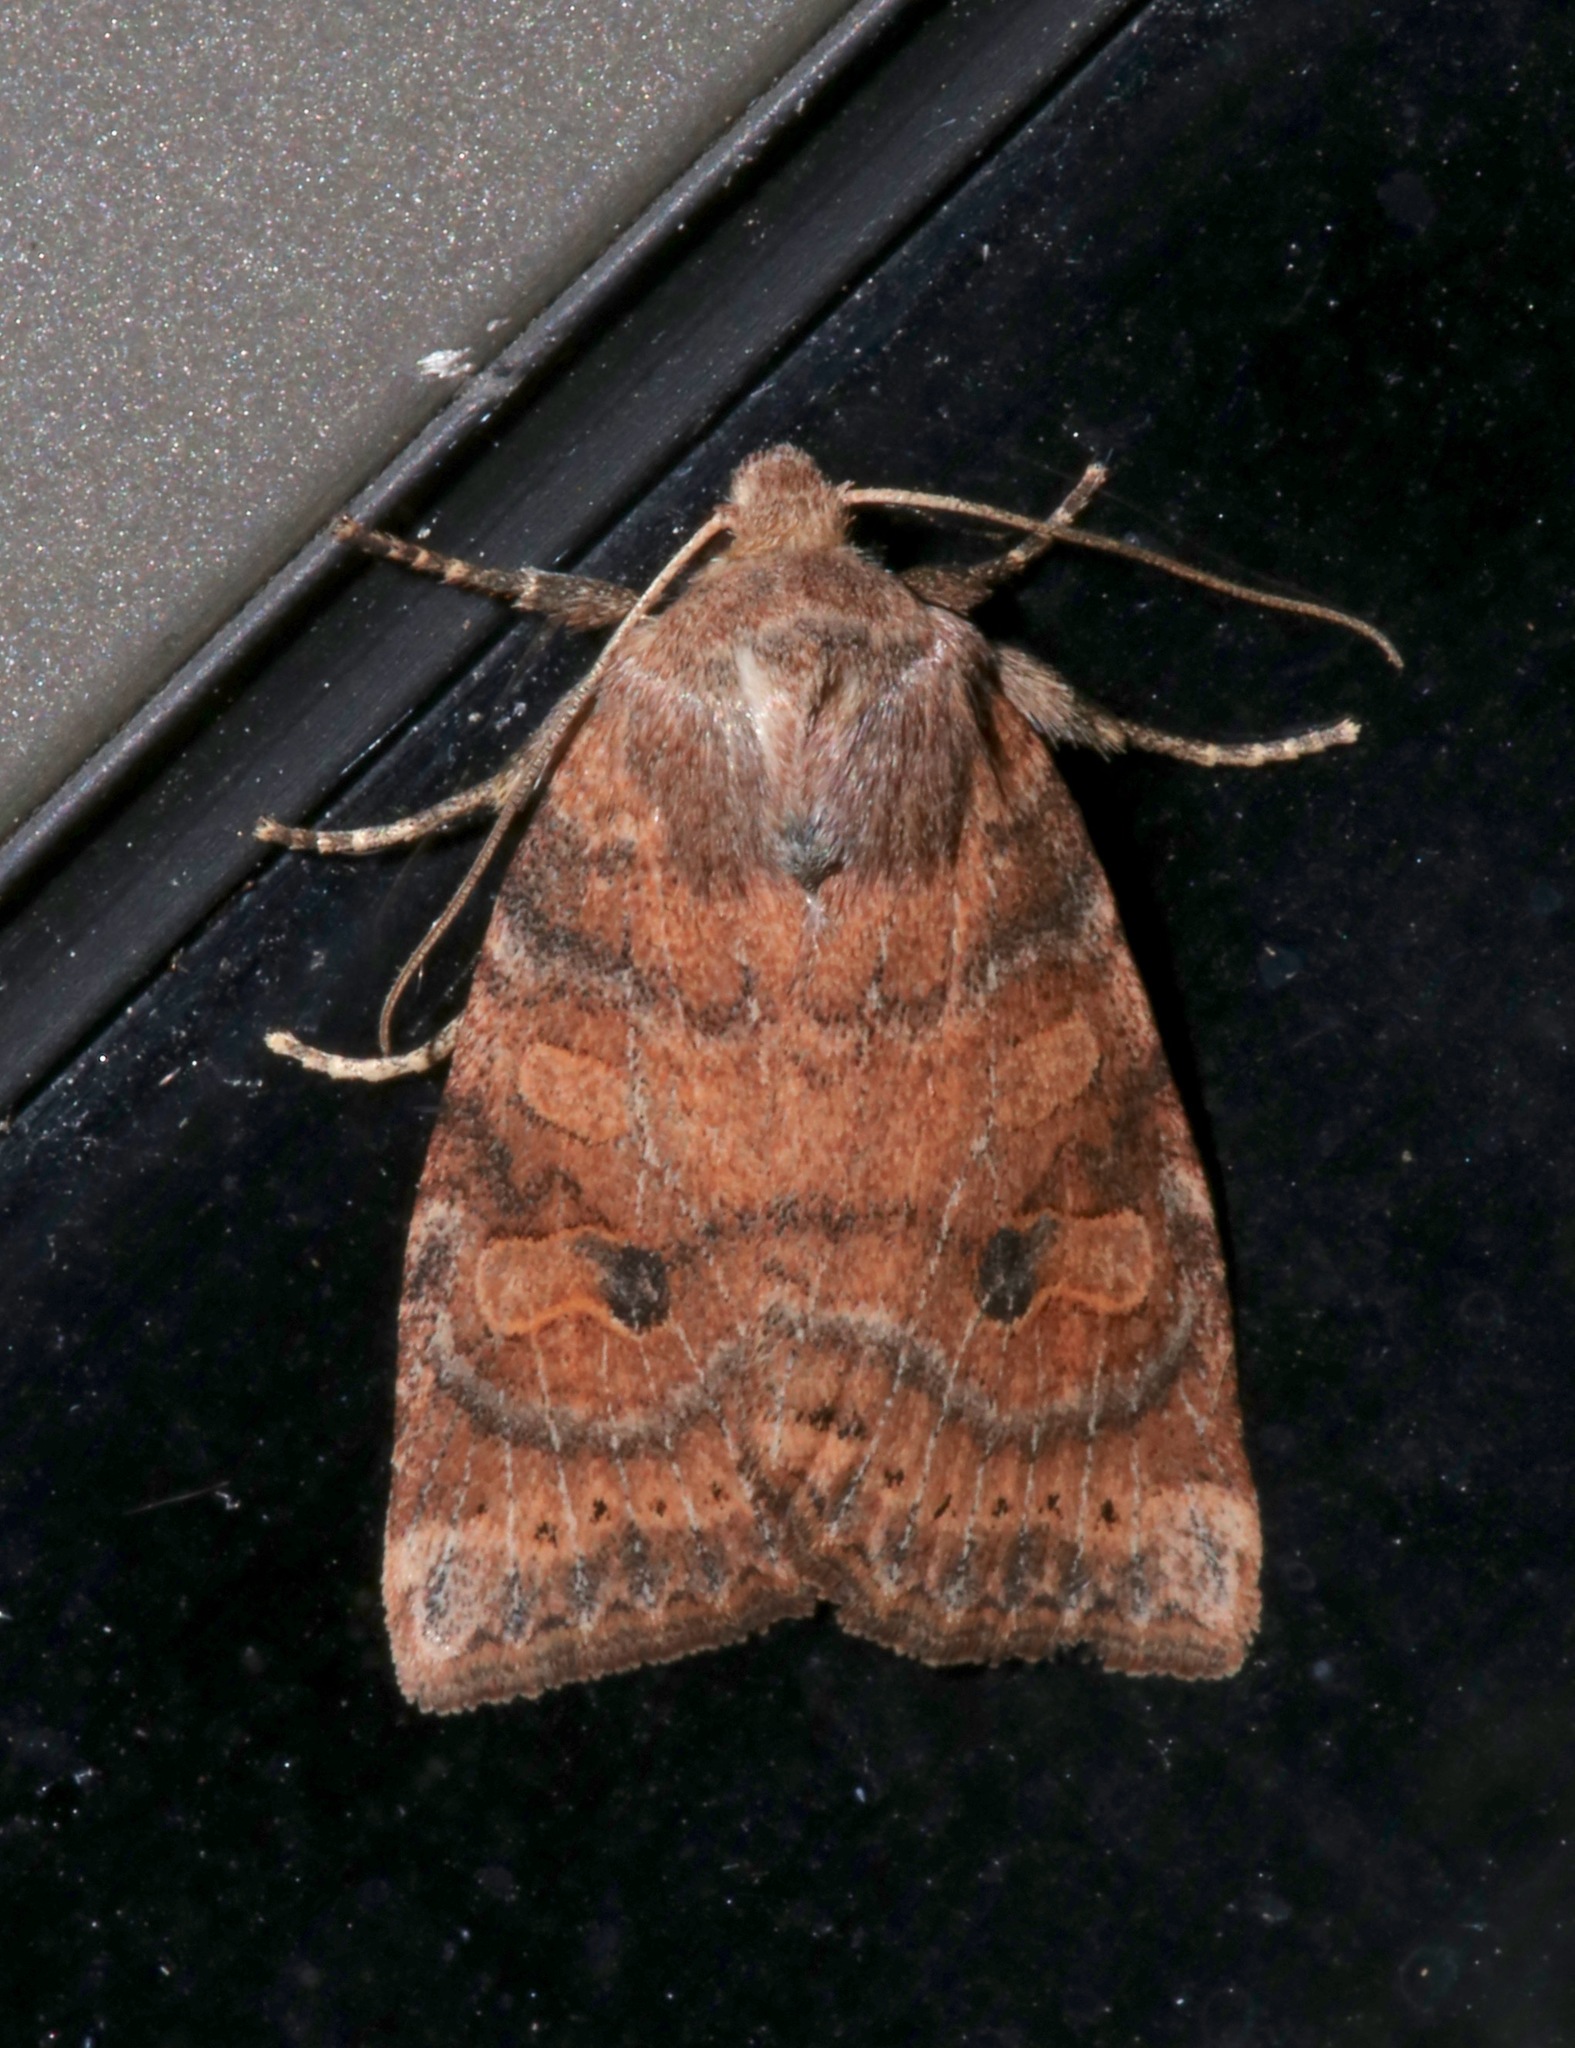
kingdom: Animalia
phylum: Arthropoda
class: Insecta
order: Lepidoptera
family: Noctuidae
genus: Anathix
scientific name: Anathix puta
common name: Puta sallow
